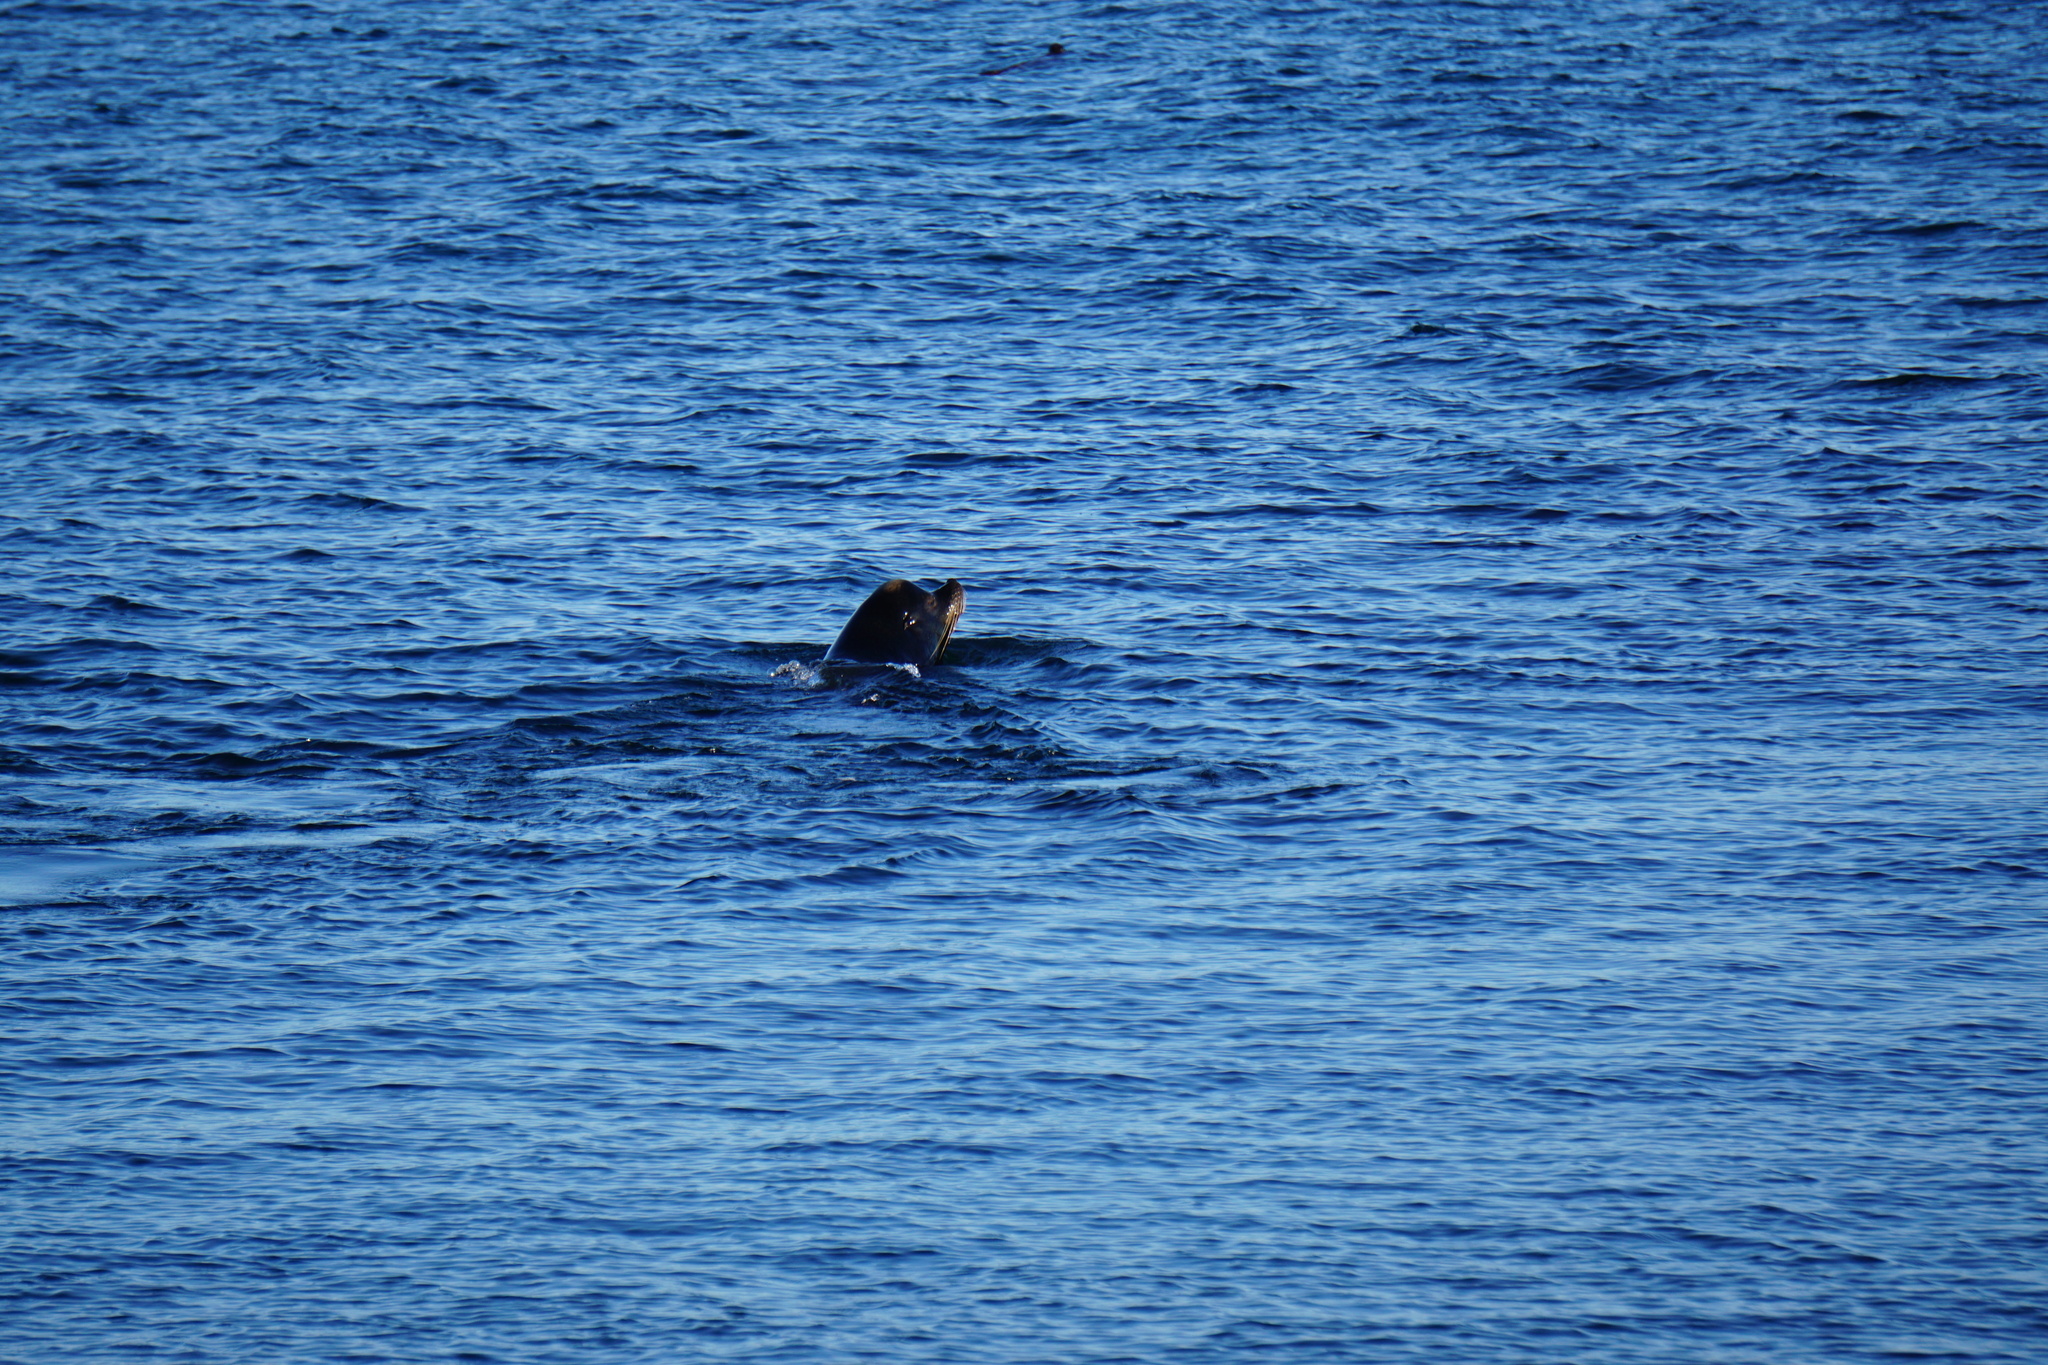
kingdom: Animalia
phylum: Chordata
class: Mammalia
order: Carnivora
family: Otariidae
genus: Zalophus
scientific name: Zalophus californianus
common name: California sea lion
